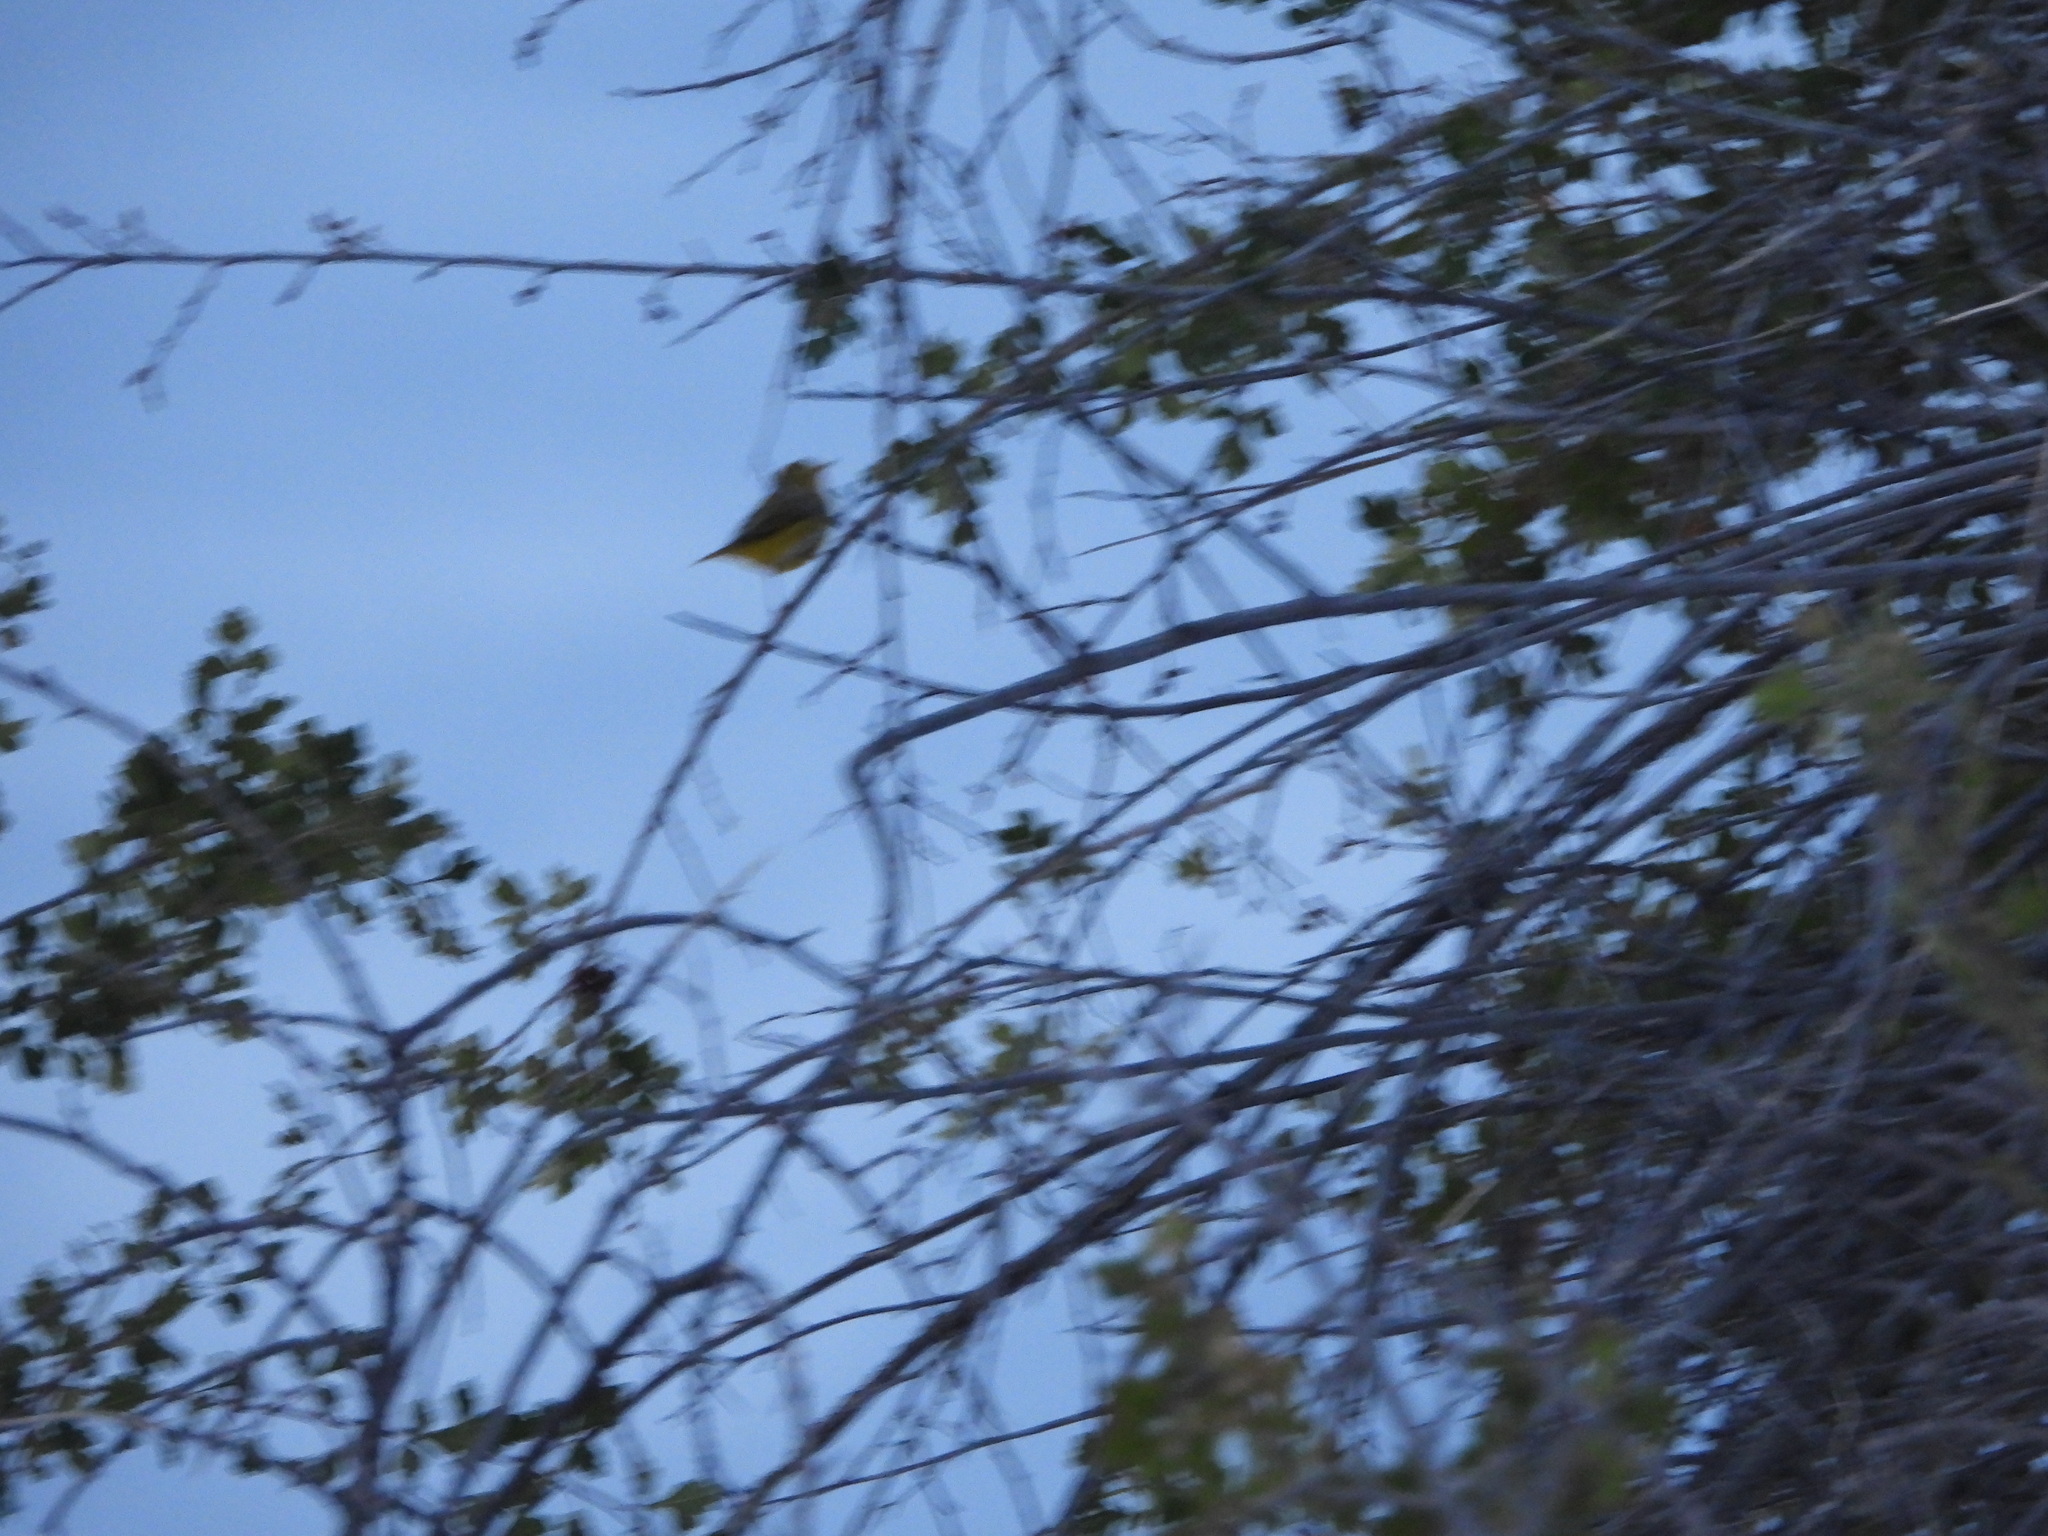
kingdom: Animalia
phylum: Chordata
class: Aves
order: Passeriformes
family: Parulidae
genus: Setophaga
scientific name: Setophaga petechia
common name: Yellow warbler
